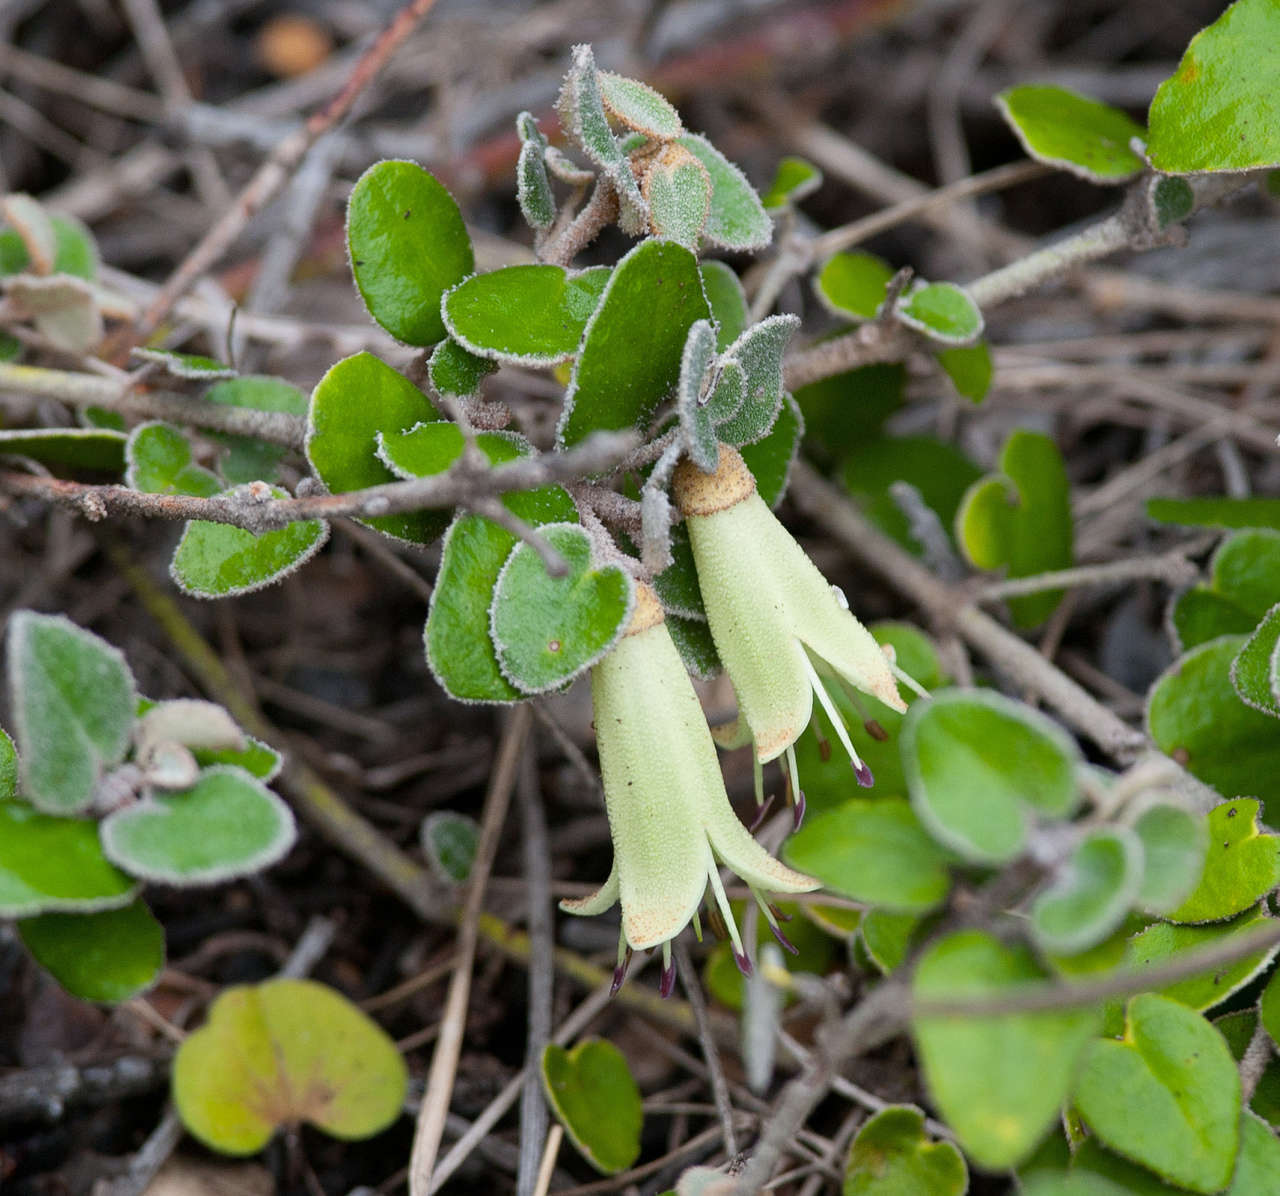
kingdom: Plantae
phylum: Tracheophyta
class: Magnoliopsida
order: Sapindales
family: Rutaceae
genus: Correa
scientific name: Correa reflexa
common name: Common correa
